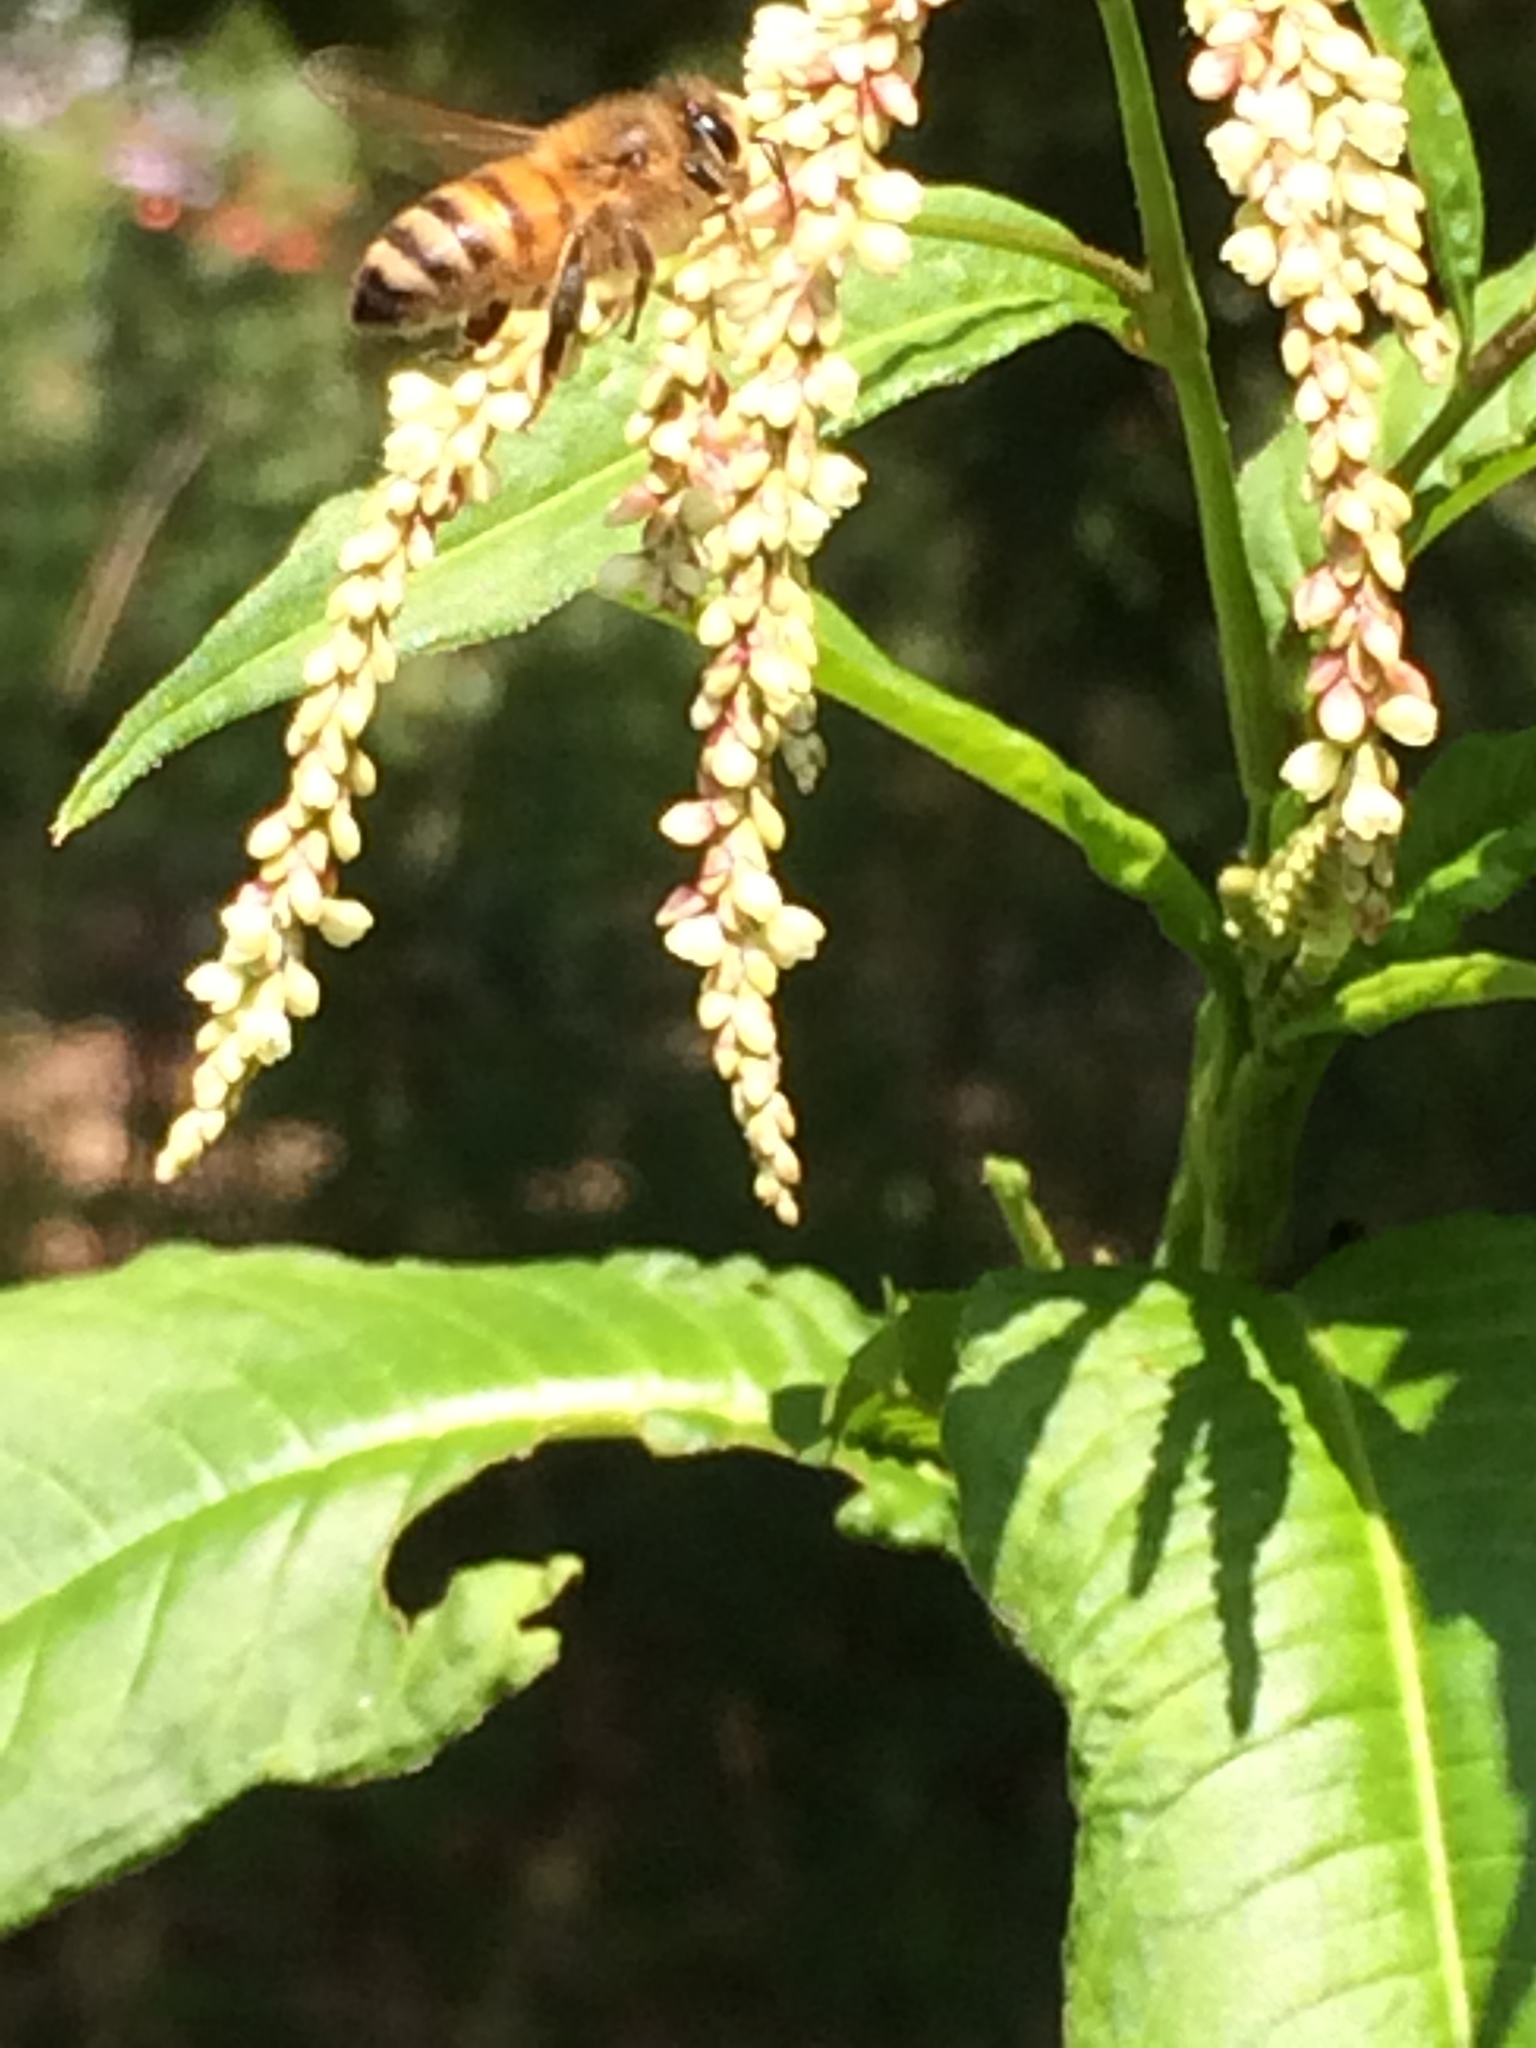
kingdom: Animalia
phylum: Arthropoda
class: Insecta
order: Hymenoptera
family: Apidae
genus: Apis
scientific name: Apis mellifera
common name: Honey bee
